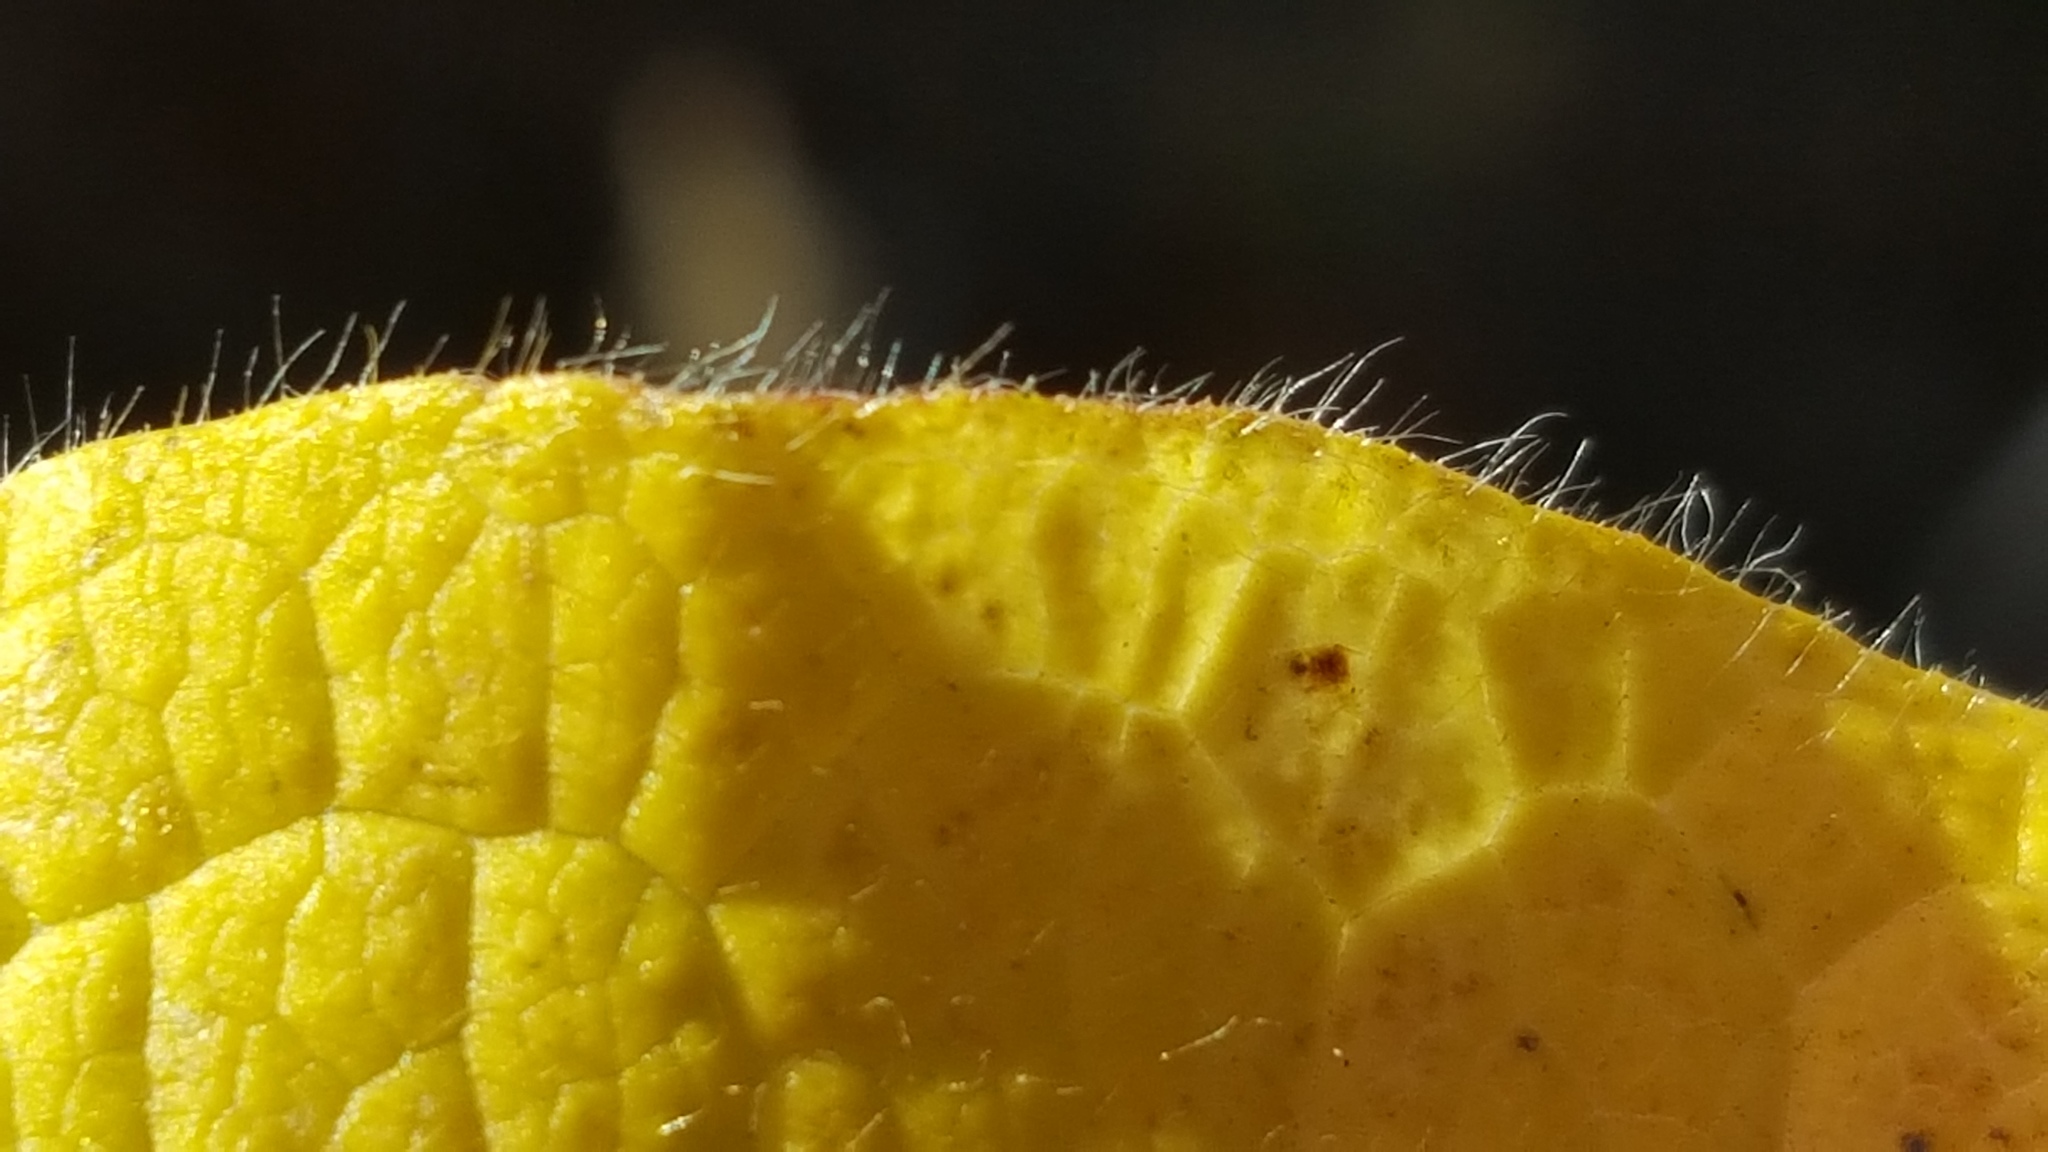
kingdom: Plantae
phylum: Tracheophyta
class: Magnoliopsida
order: Dipsacales
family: Caprifoliaceae
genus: Lonicera
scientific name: Lonicera hirsuta
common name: Hairy honeysuckle
